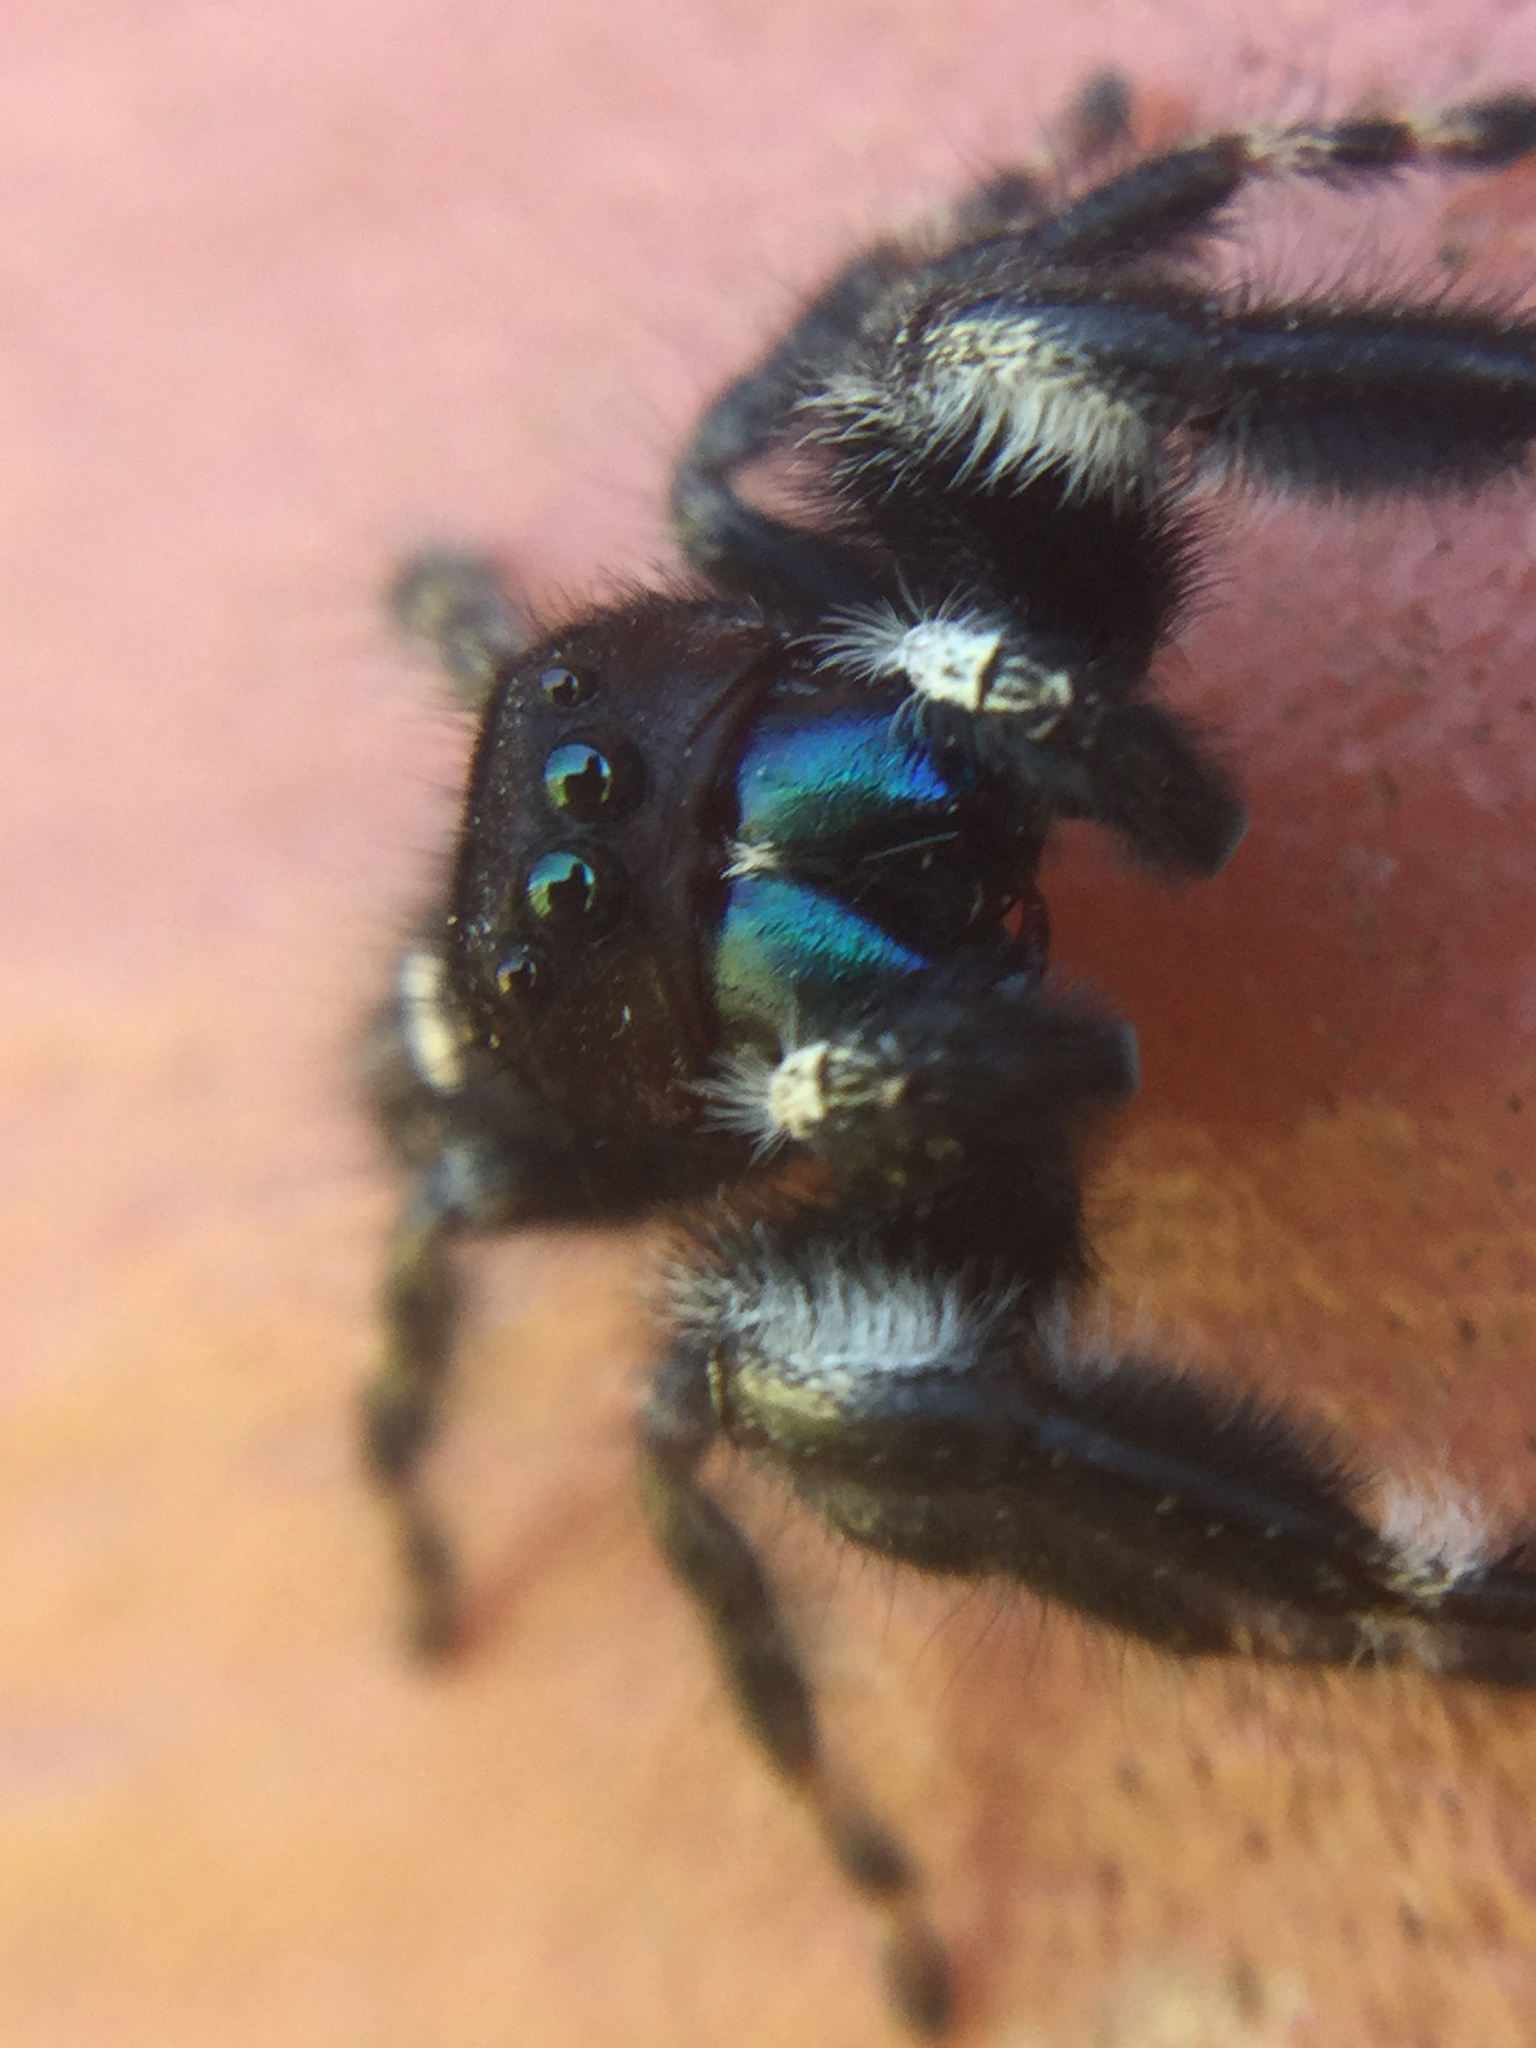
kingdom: Animalia
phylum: Arthropoda
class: Arachnida
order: Araneae
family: Salticidae
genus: Phidippus
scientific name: Phidippus audax
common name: Bold jumper
